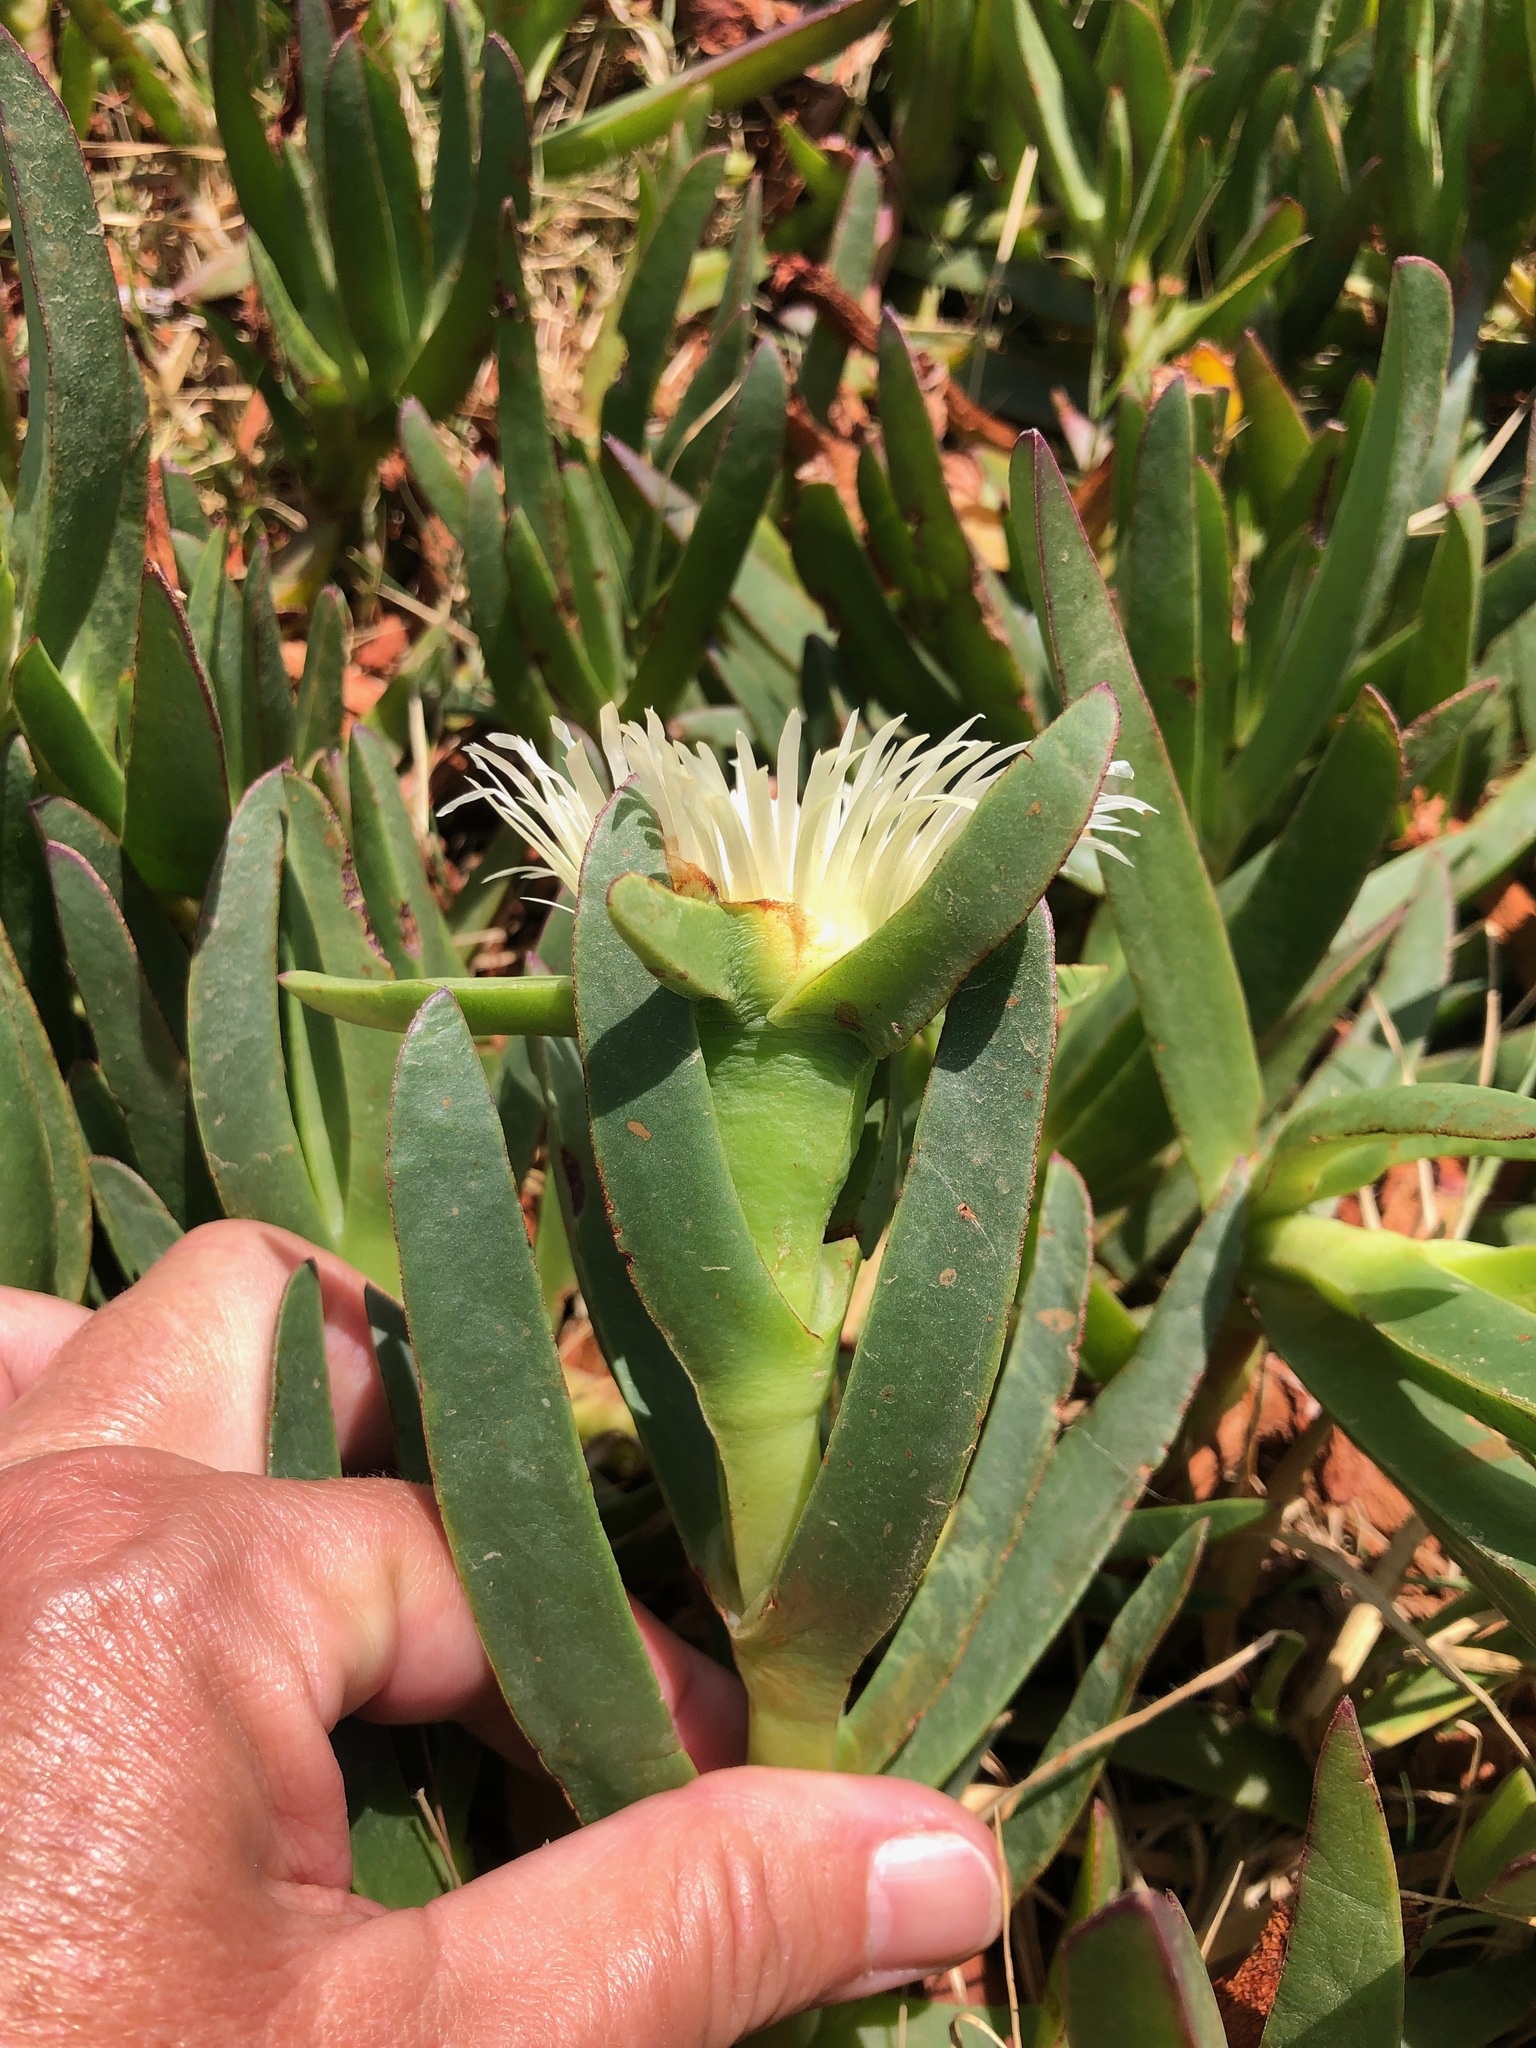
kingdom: Plantae
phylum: Tracheophyta
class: Magnoliopsida
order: Caryophyllales
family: Aizoaceae
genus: Carpobrotus
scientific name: Carpobrotus edulis
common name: Hottentot-fig
